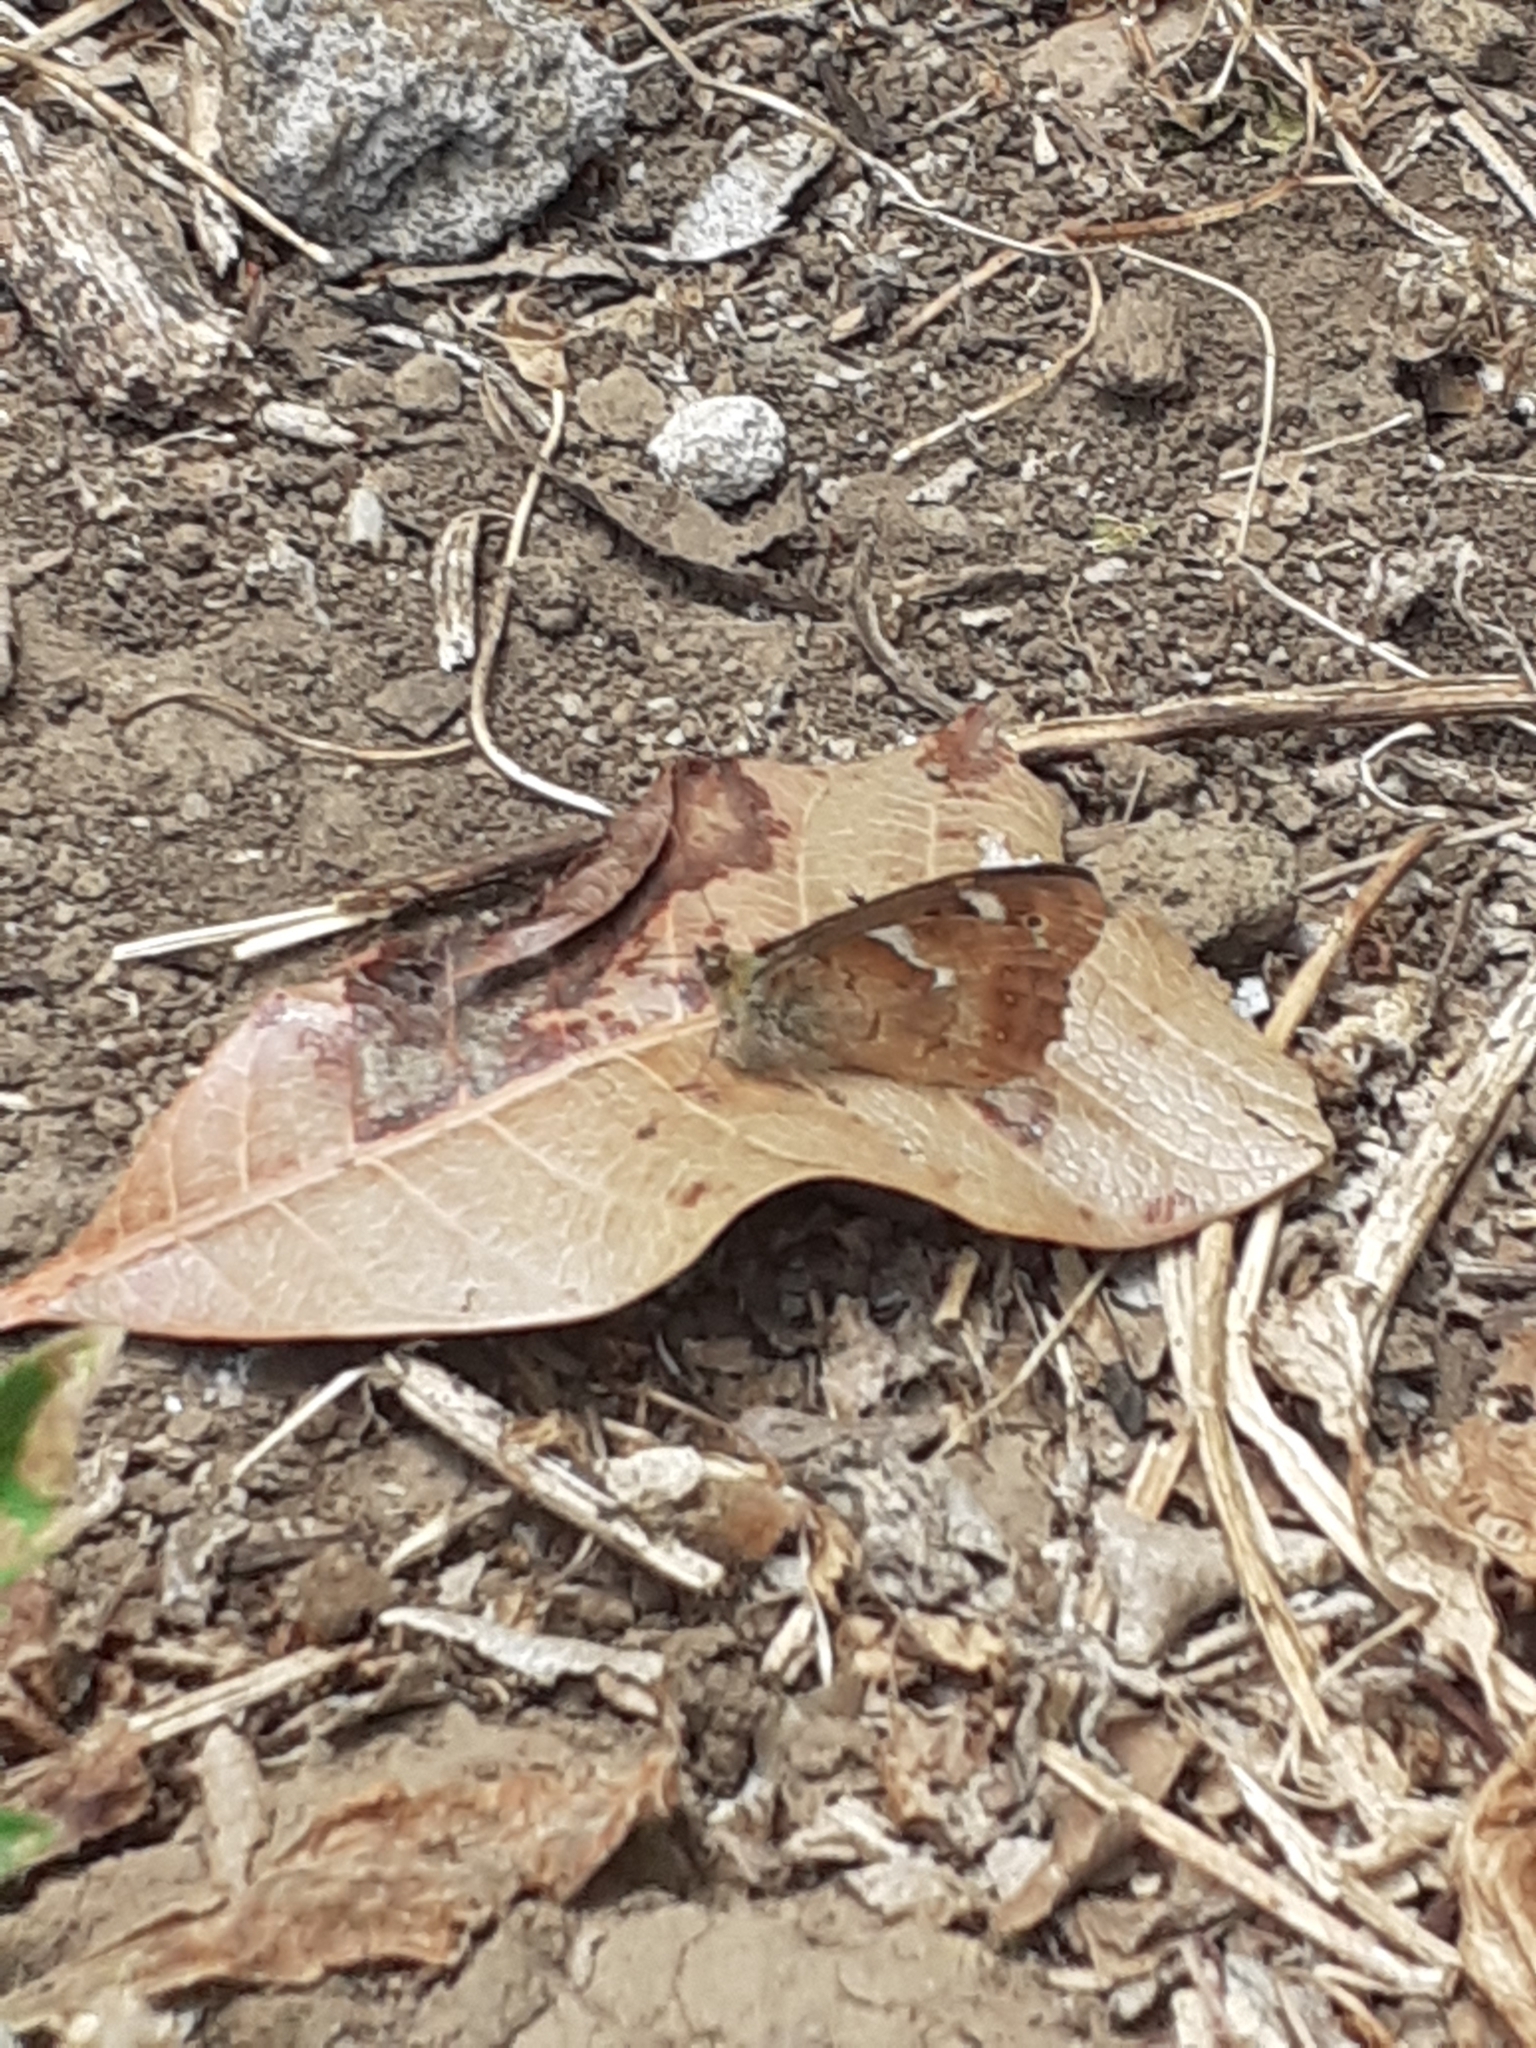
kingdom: Animalia
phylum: Arthropoda
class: Insecta
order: Lepidoptera
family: Nymphalidae
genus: Pararge
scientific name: Pararge aegeria
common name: Speckled wood
